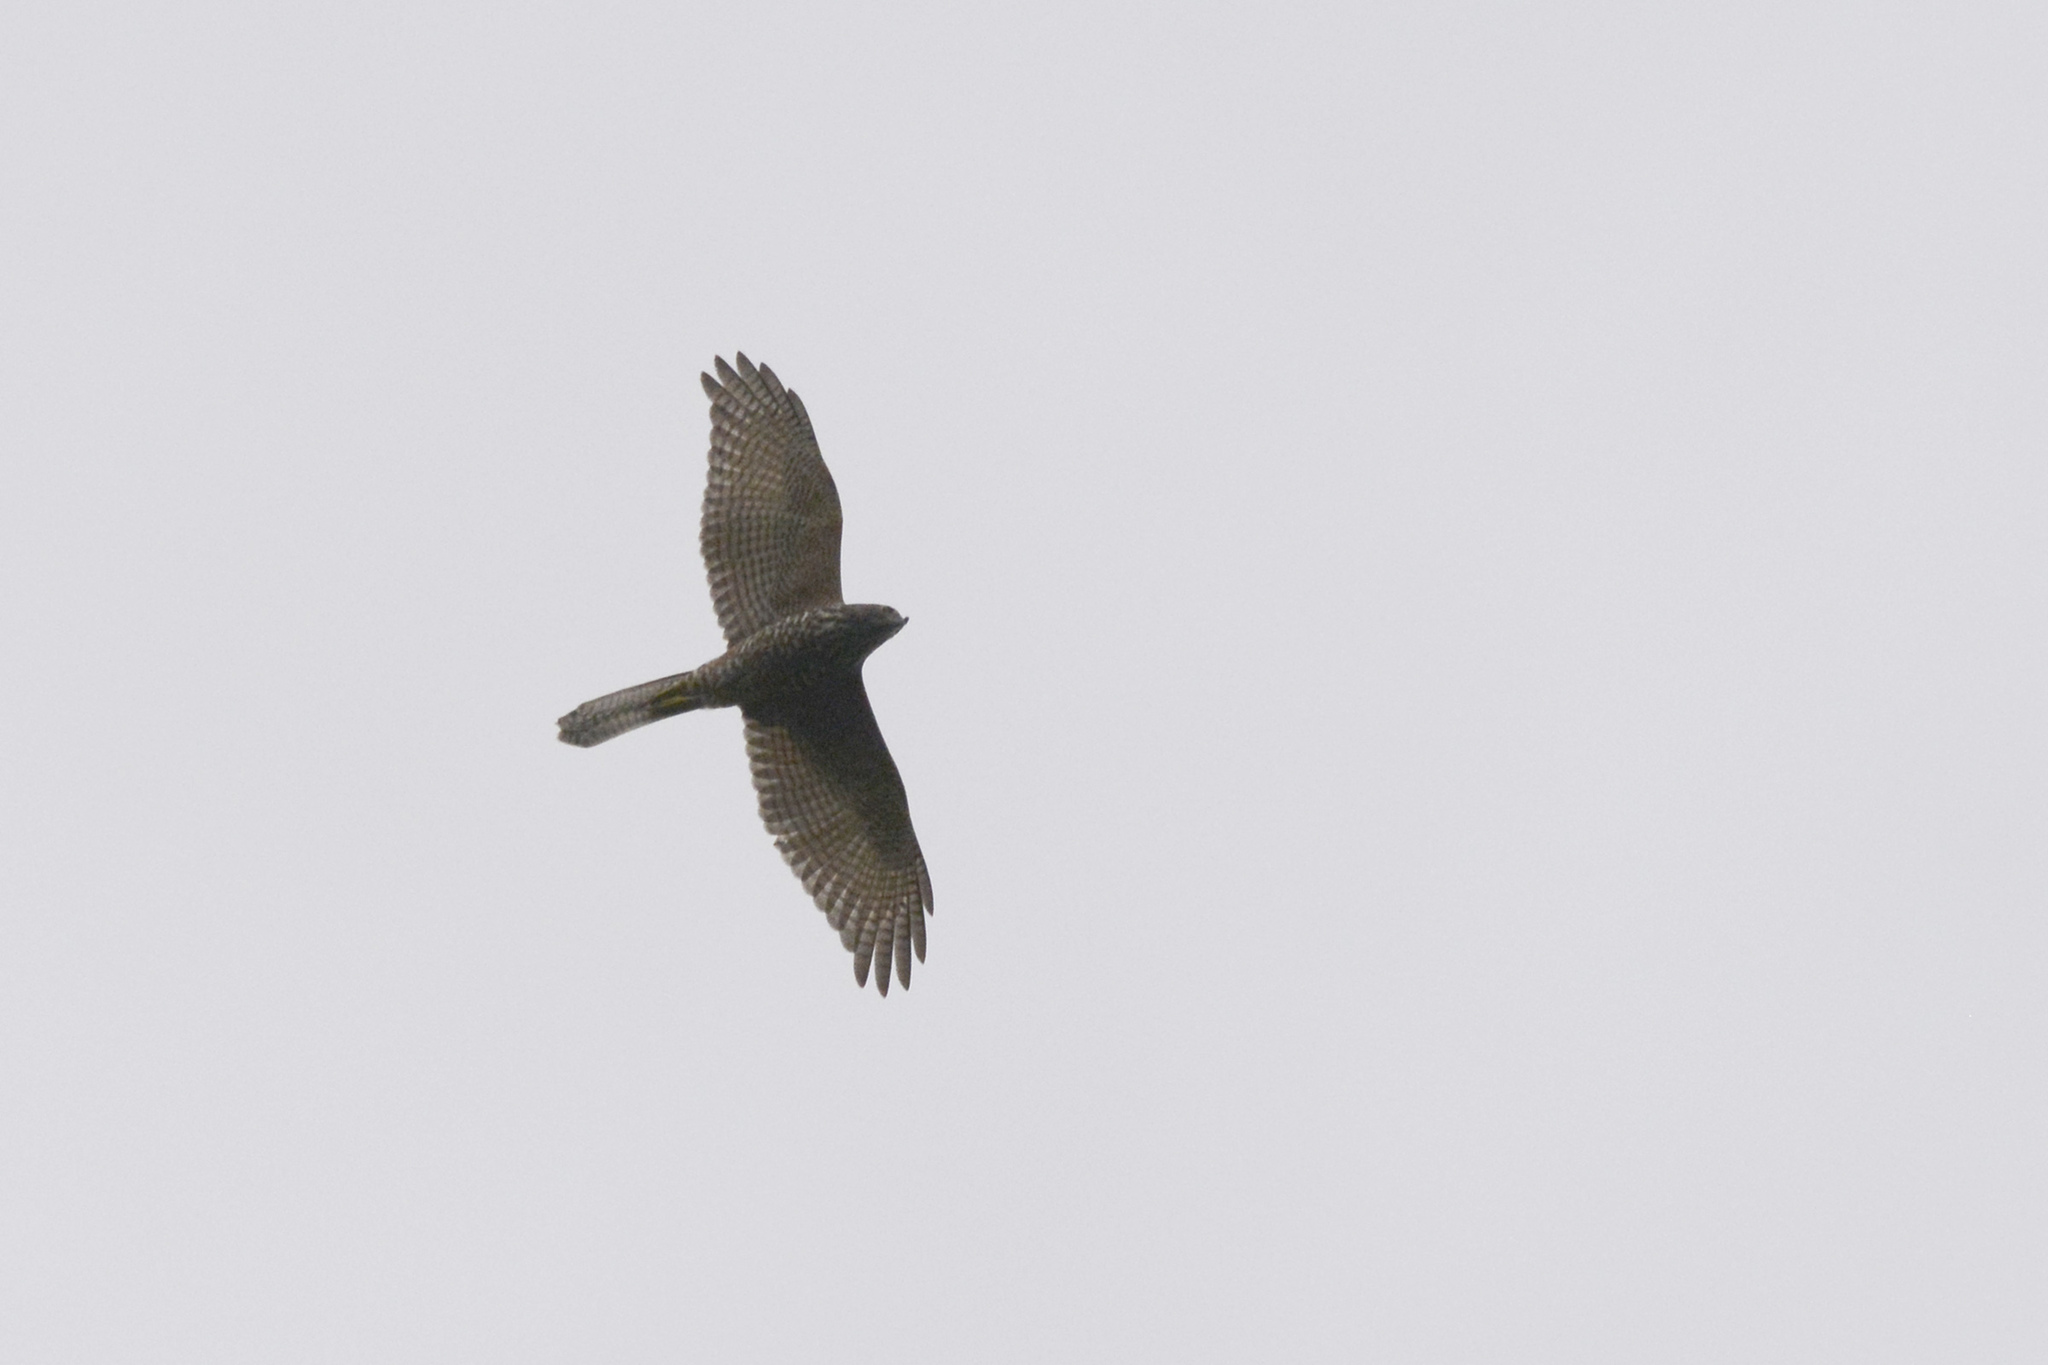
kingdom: Animalia
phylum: Chordata
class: Aves
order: Accipitriformes
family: Accipitridae
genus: Accipiter
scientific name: Accipiter fasciatus
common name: Brown goshawk
